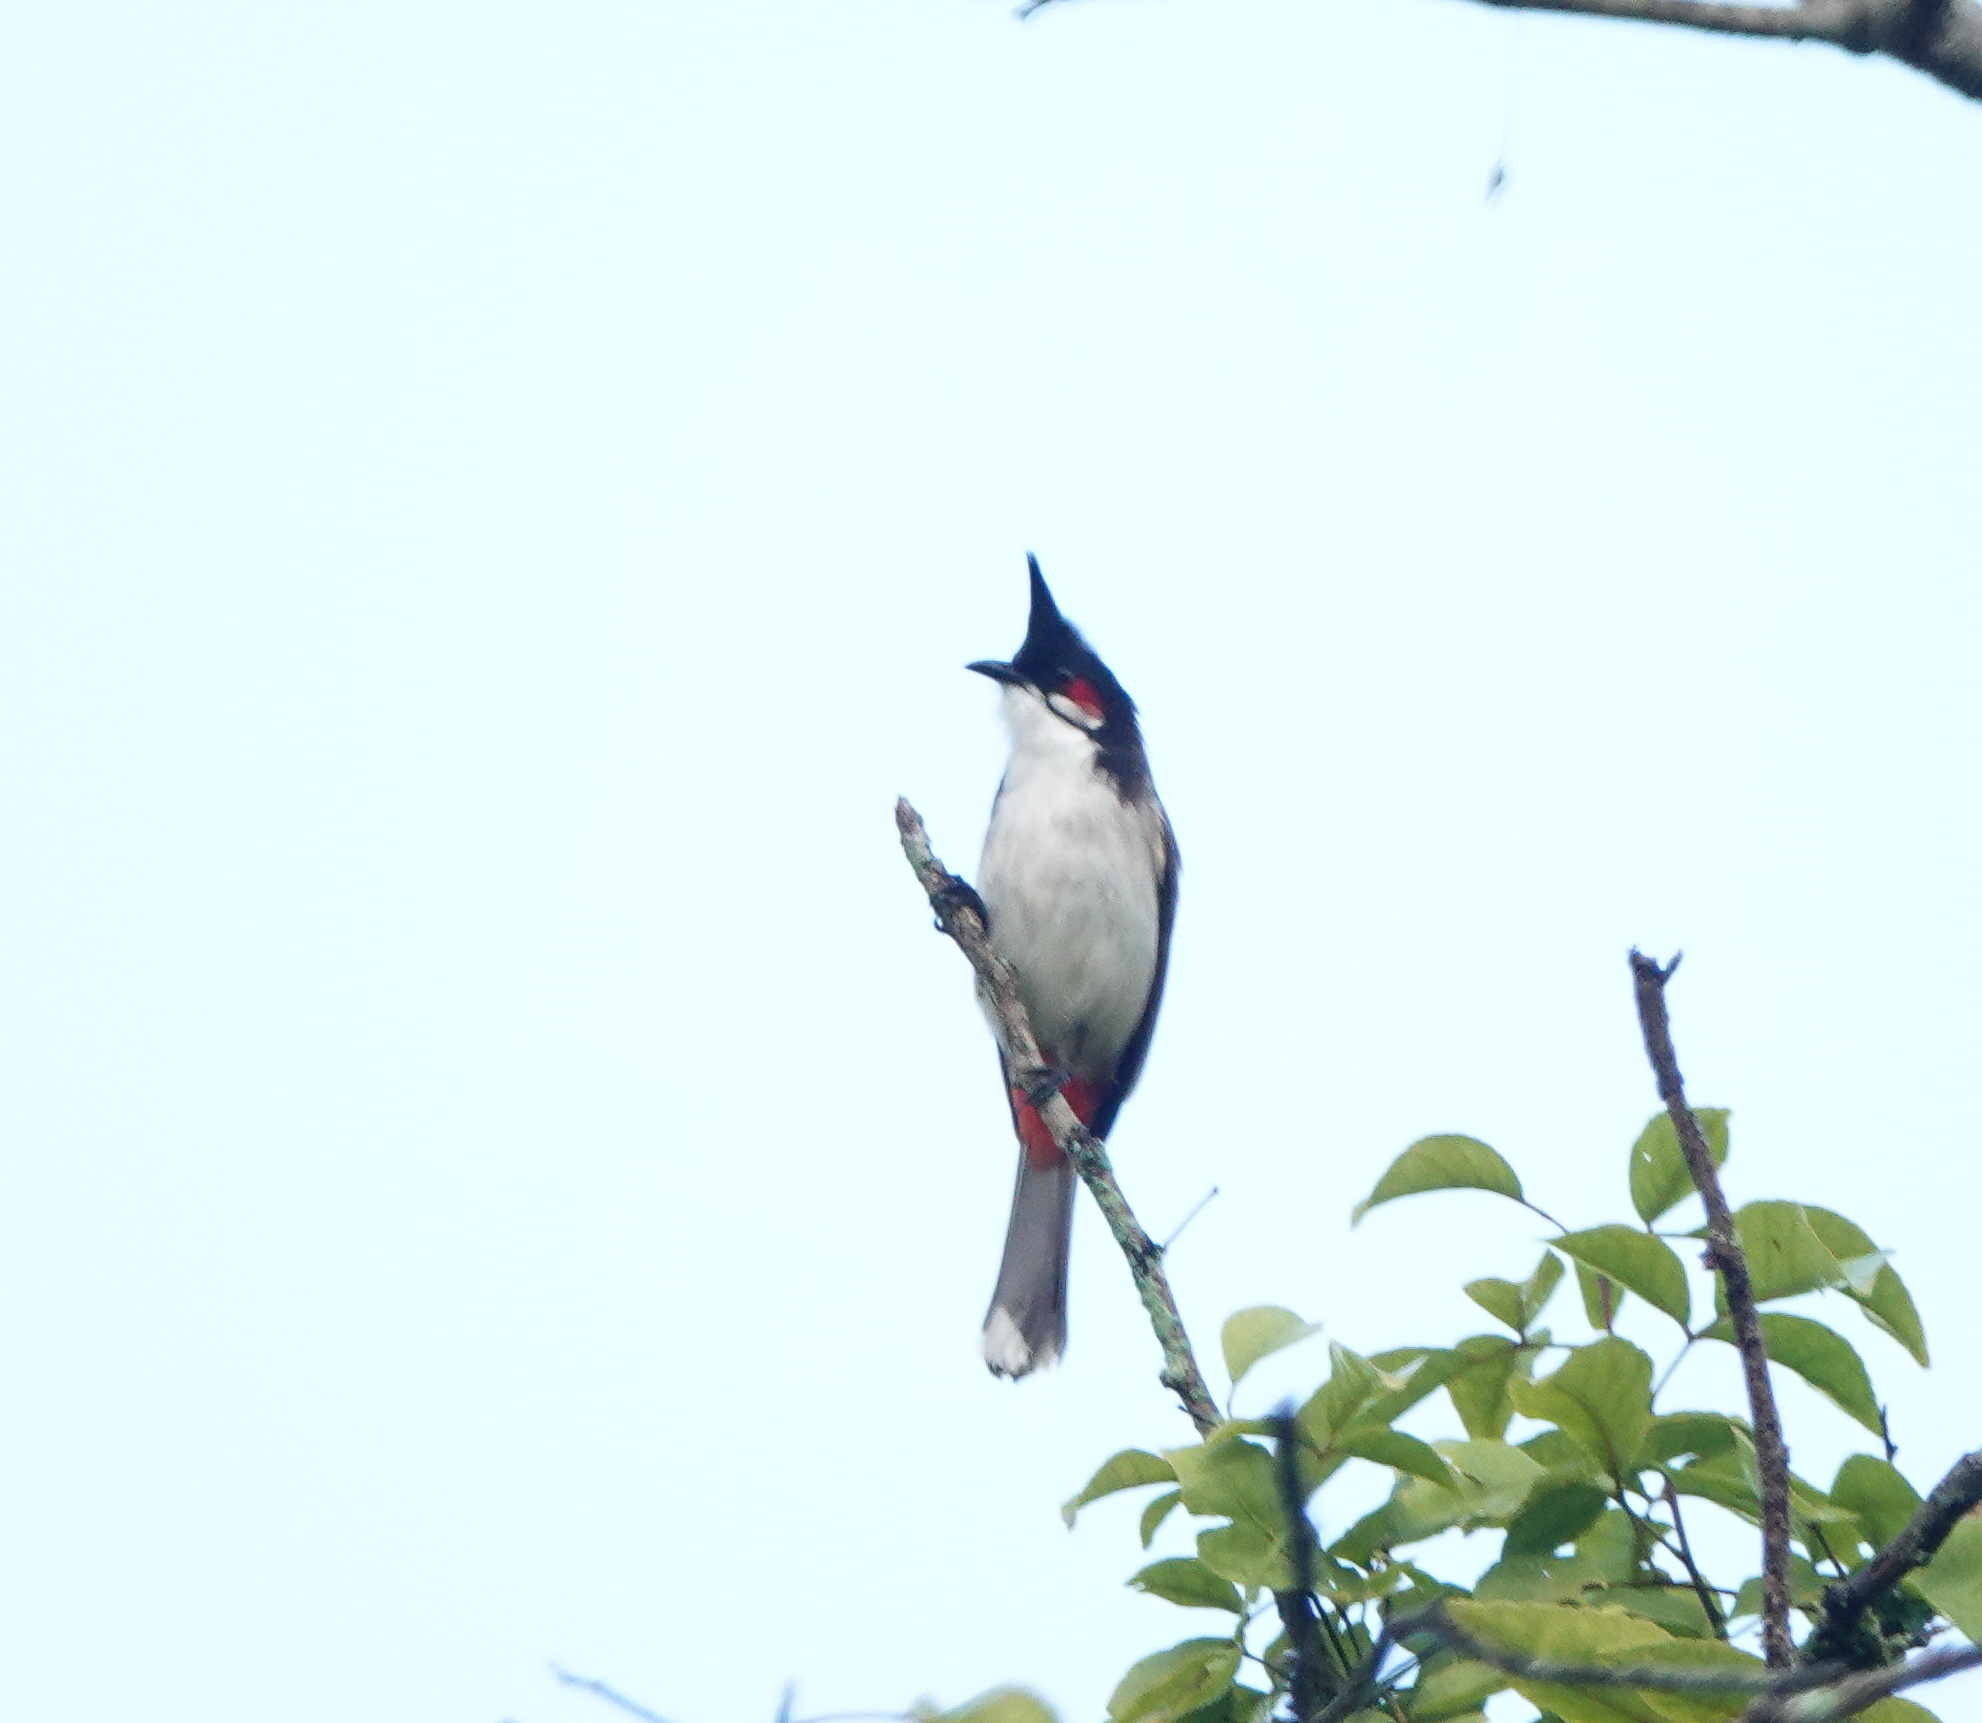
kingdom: Animalia
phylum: Chordata
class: Aves
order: Passeriformes
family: Pycnonotidae
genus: Pycnonotus
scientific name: Pycnonotus jocosus
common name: Red-whiskered bulbul
